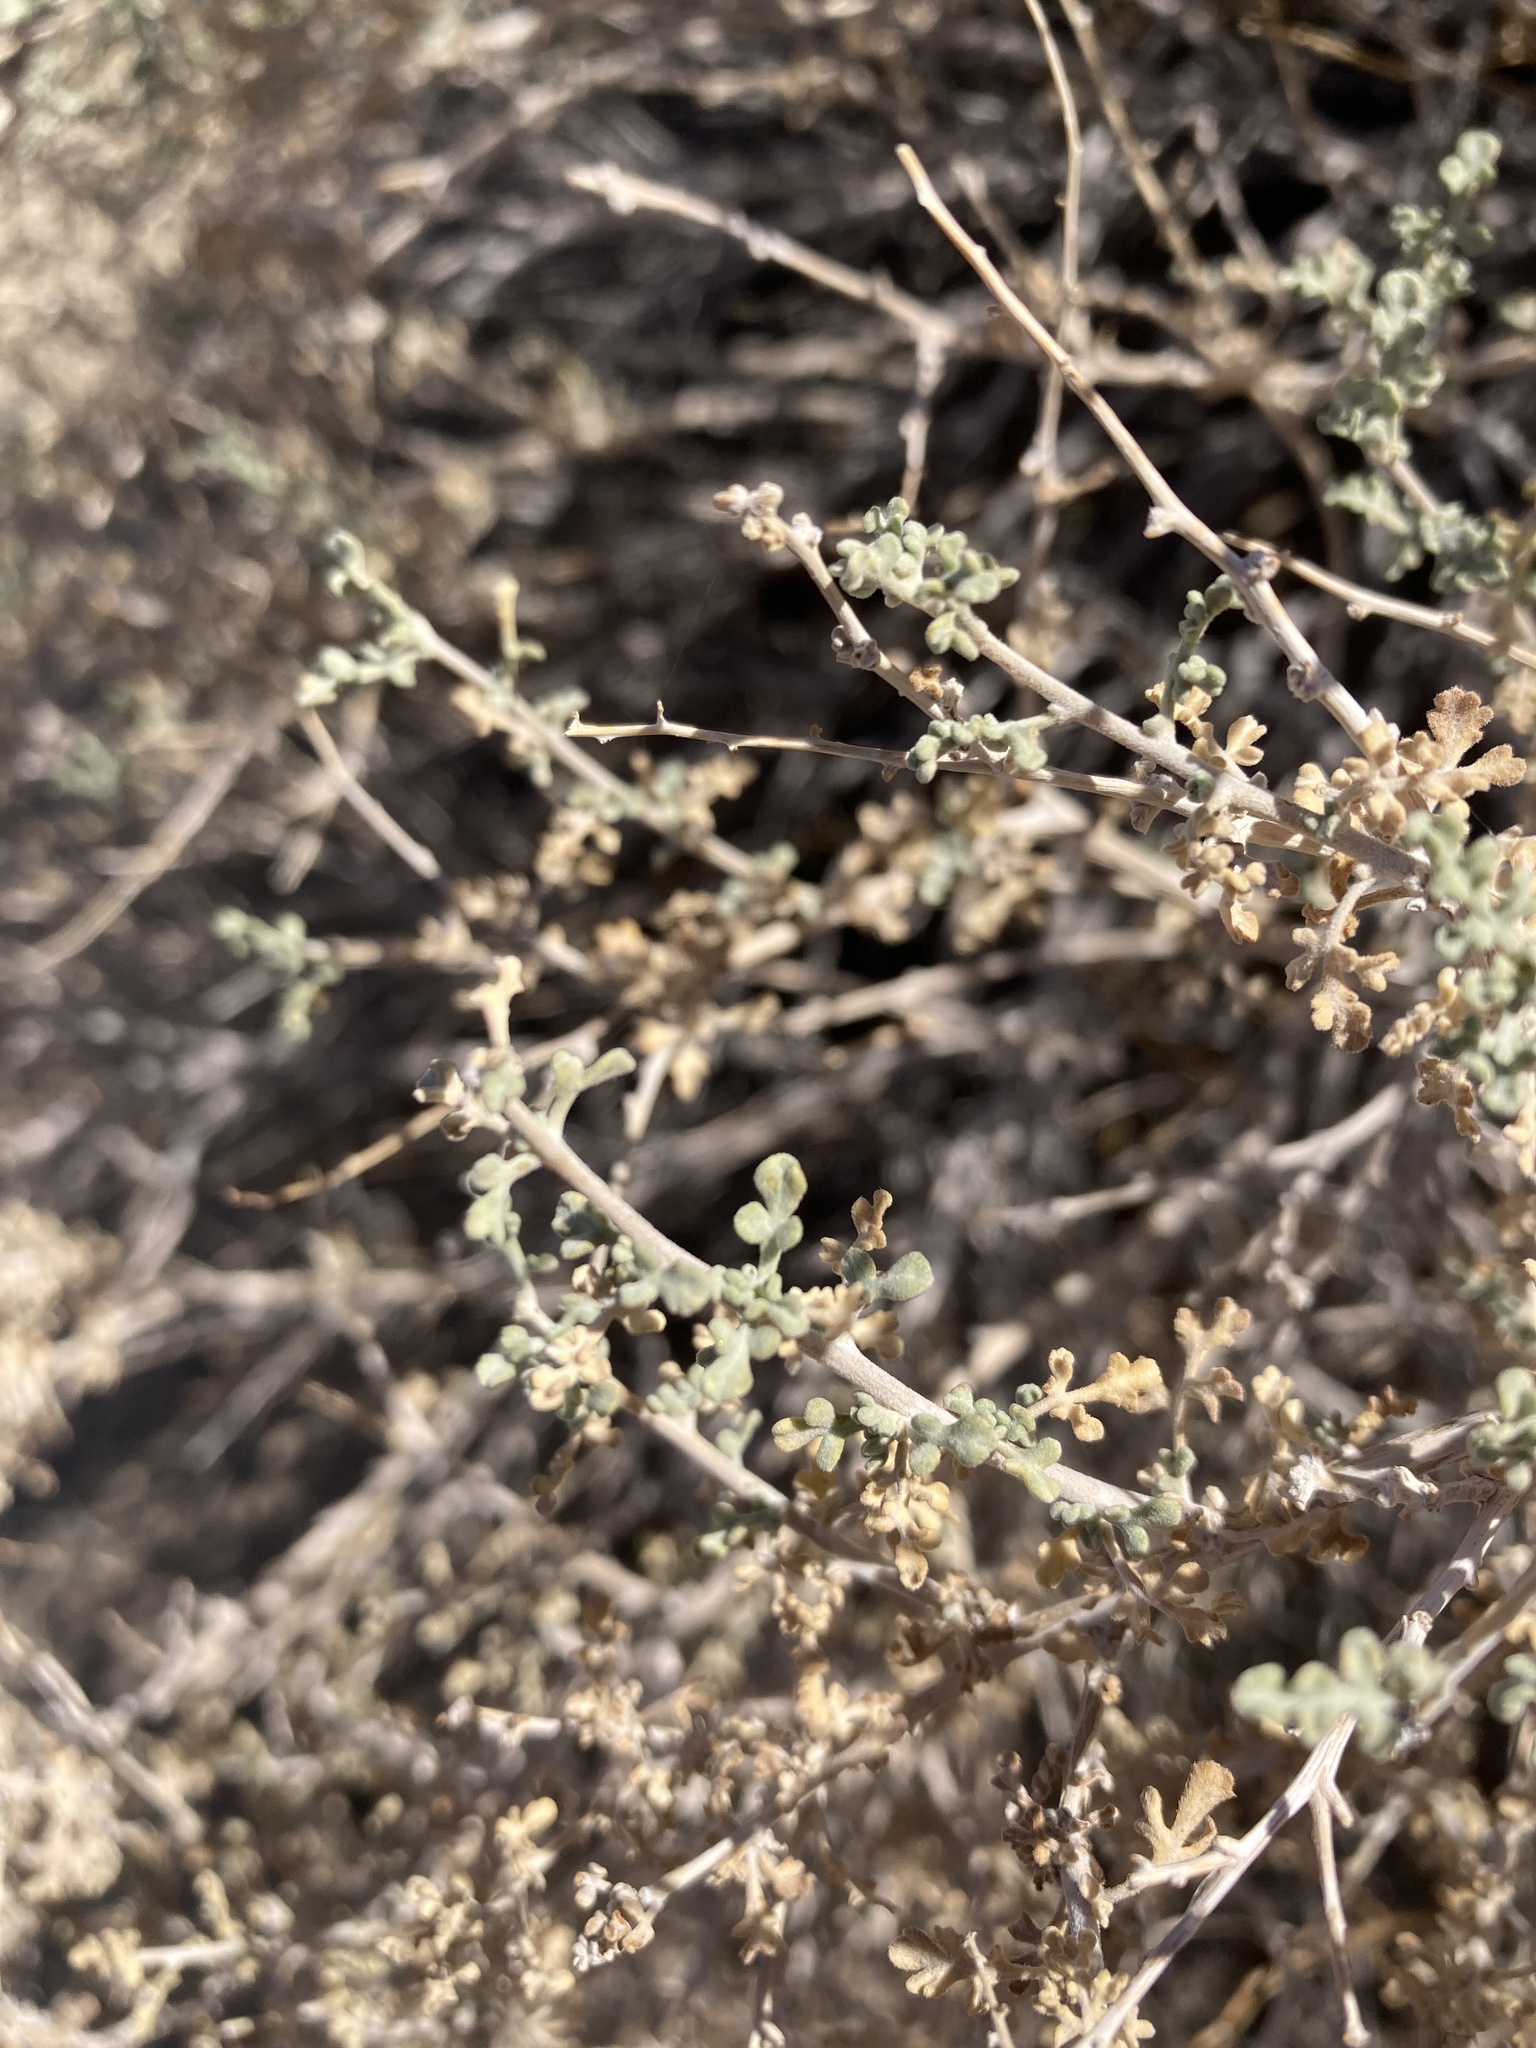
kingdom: Plantae
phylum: Tracheophyta
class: Magnoliopsida
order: Asterales
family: Asteraceae
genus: Ambrosia
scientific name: Ambrosia dumosa
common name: Bur-sage
